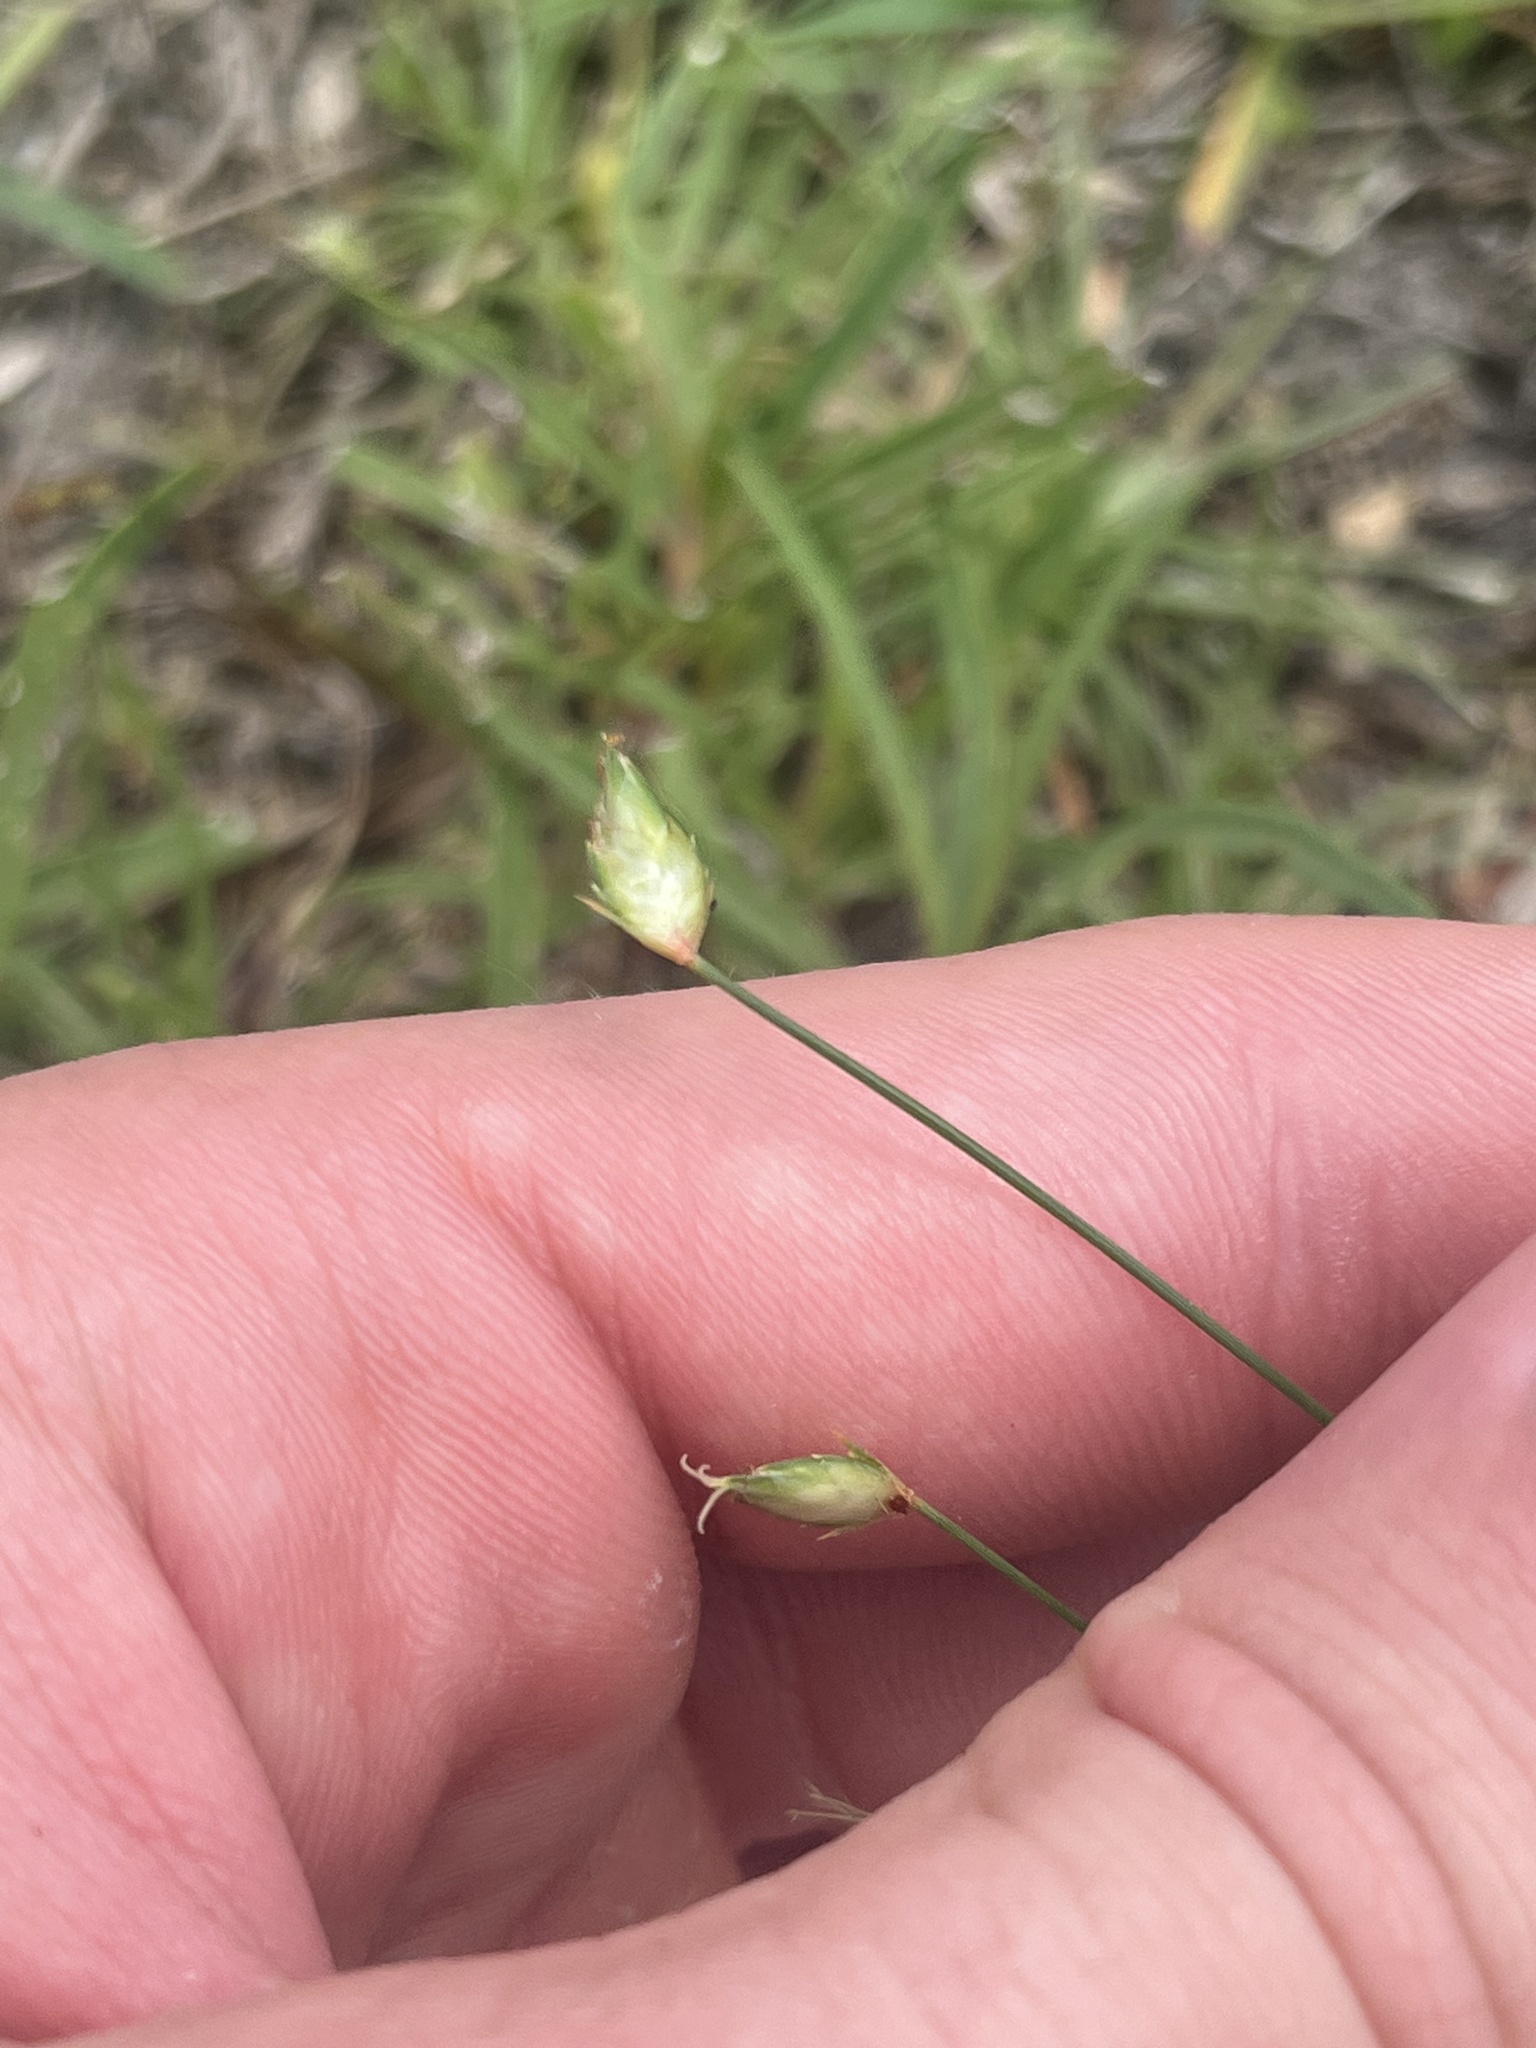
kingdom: Plantae
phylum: Tracheophyta
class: Liliopsida
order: Poales
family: Cyperaceae
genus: Abildgaardia
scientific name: Abildgaardia ovata
